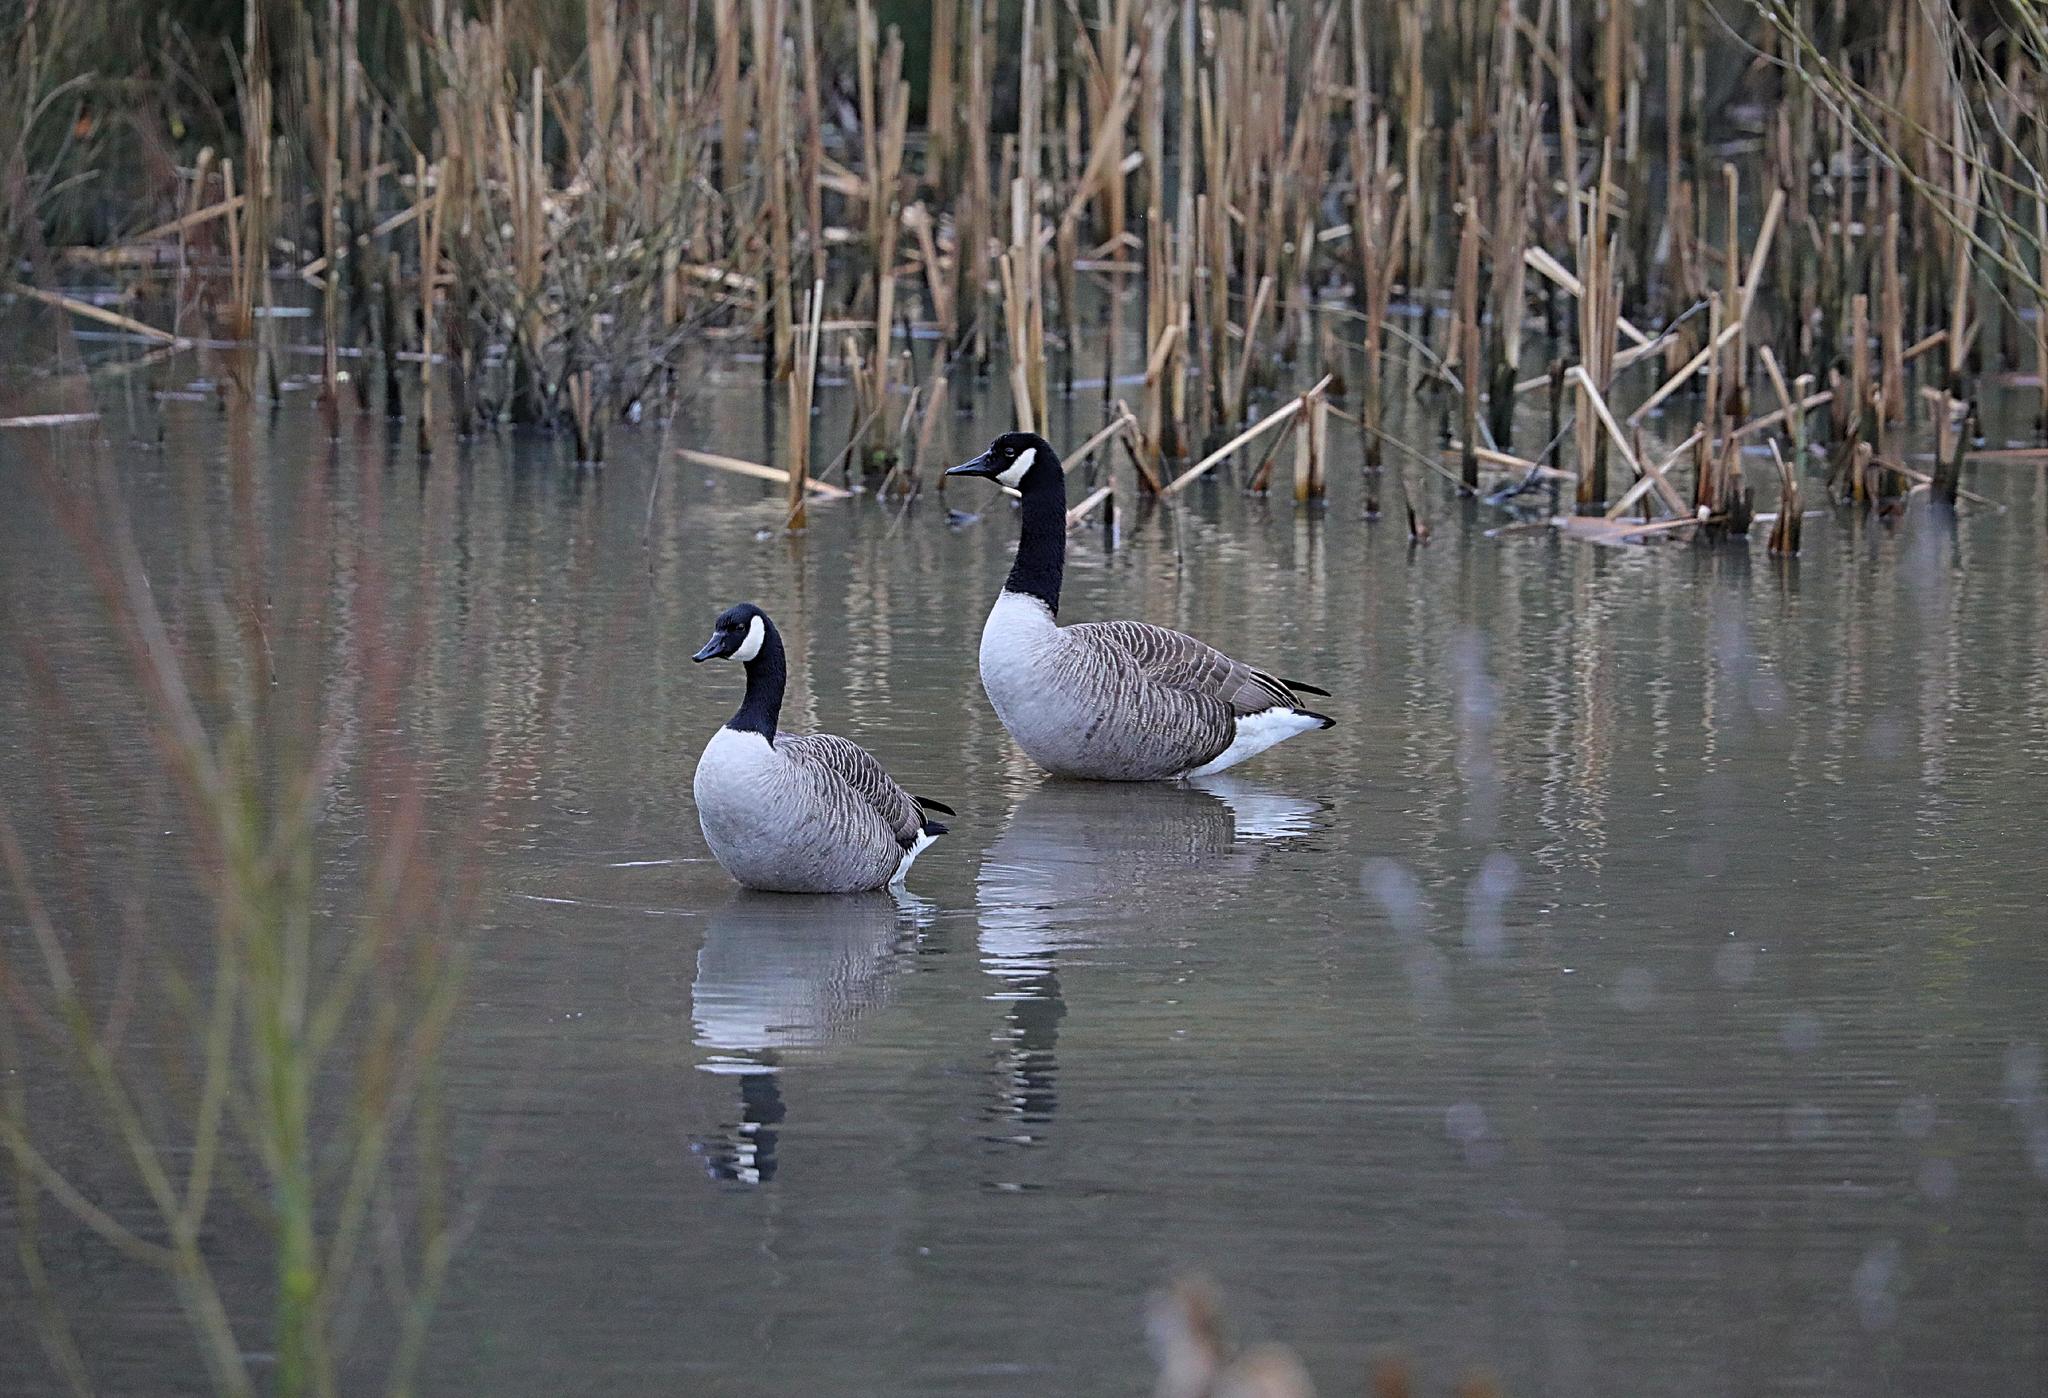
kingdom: Animalia
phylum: Chordata
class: Aves
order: Anseriformes
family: Anatidae
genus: Branta
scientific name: Branta canadensis
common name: Canada goose
